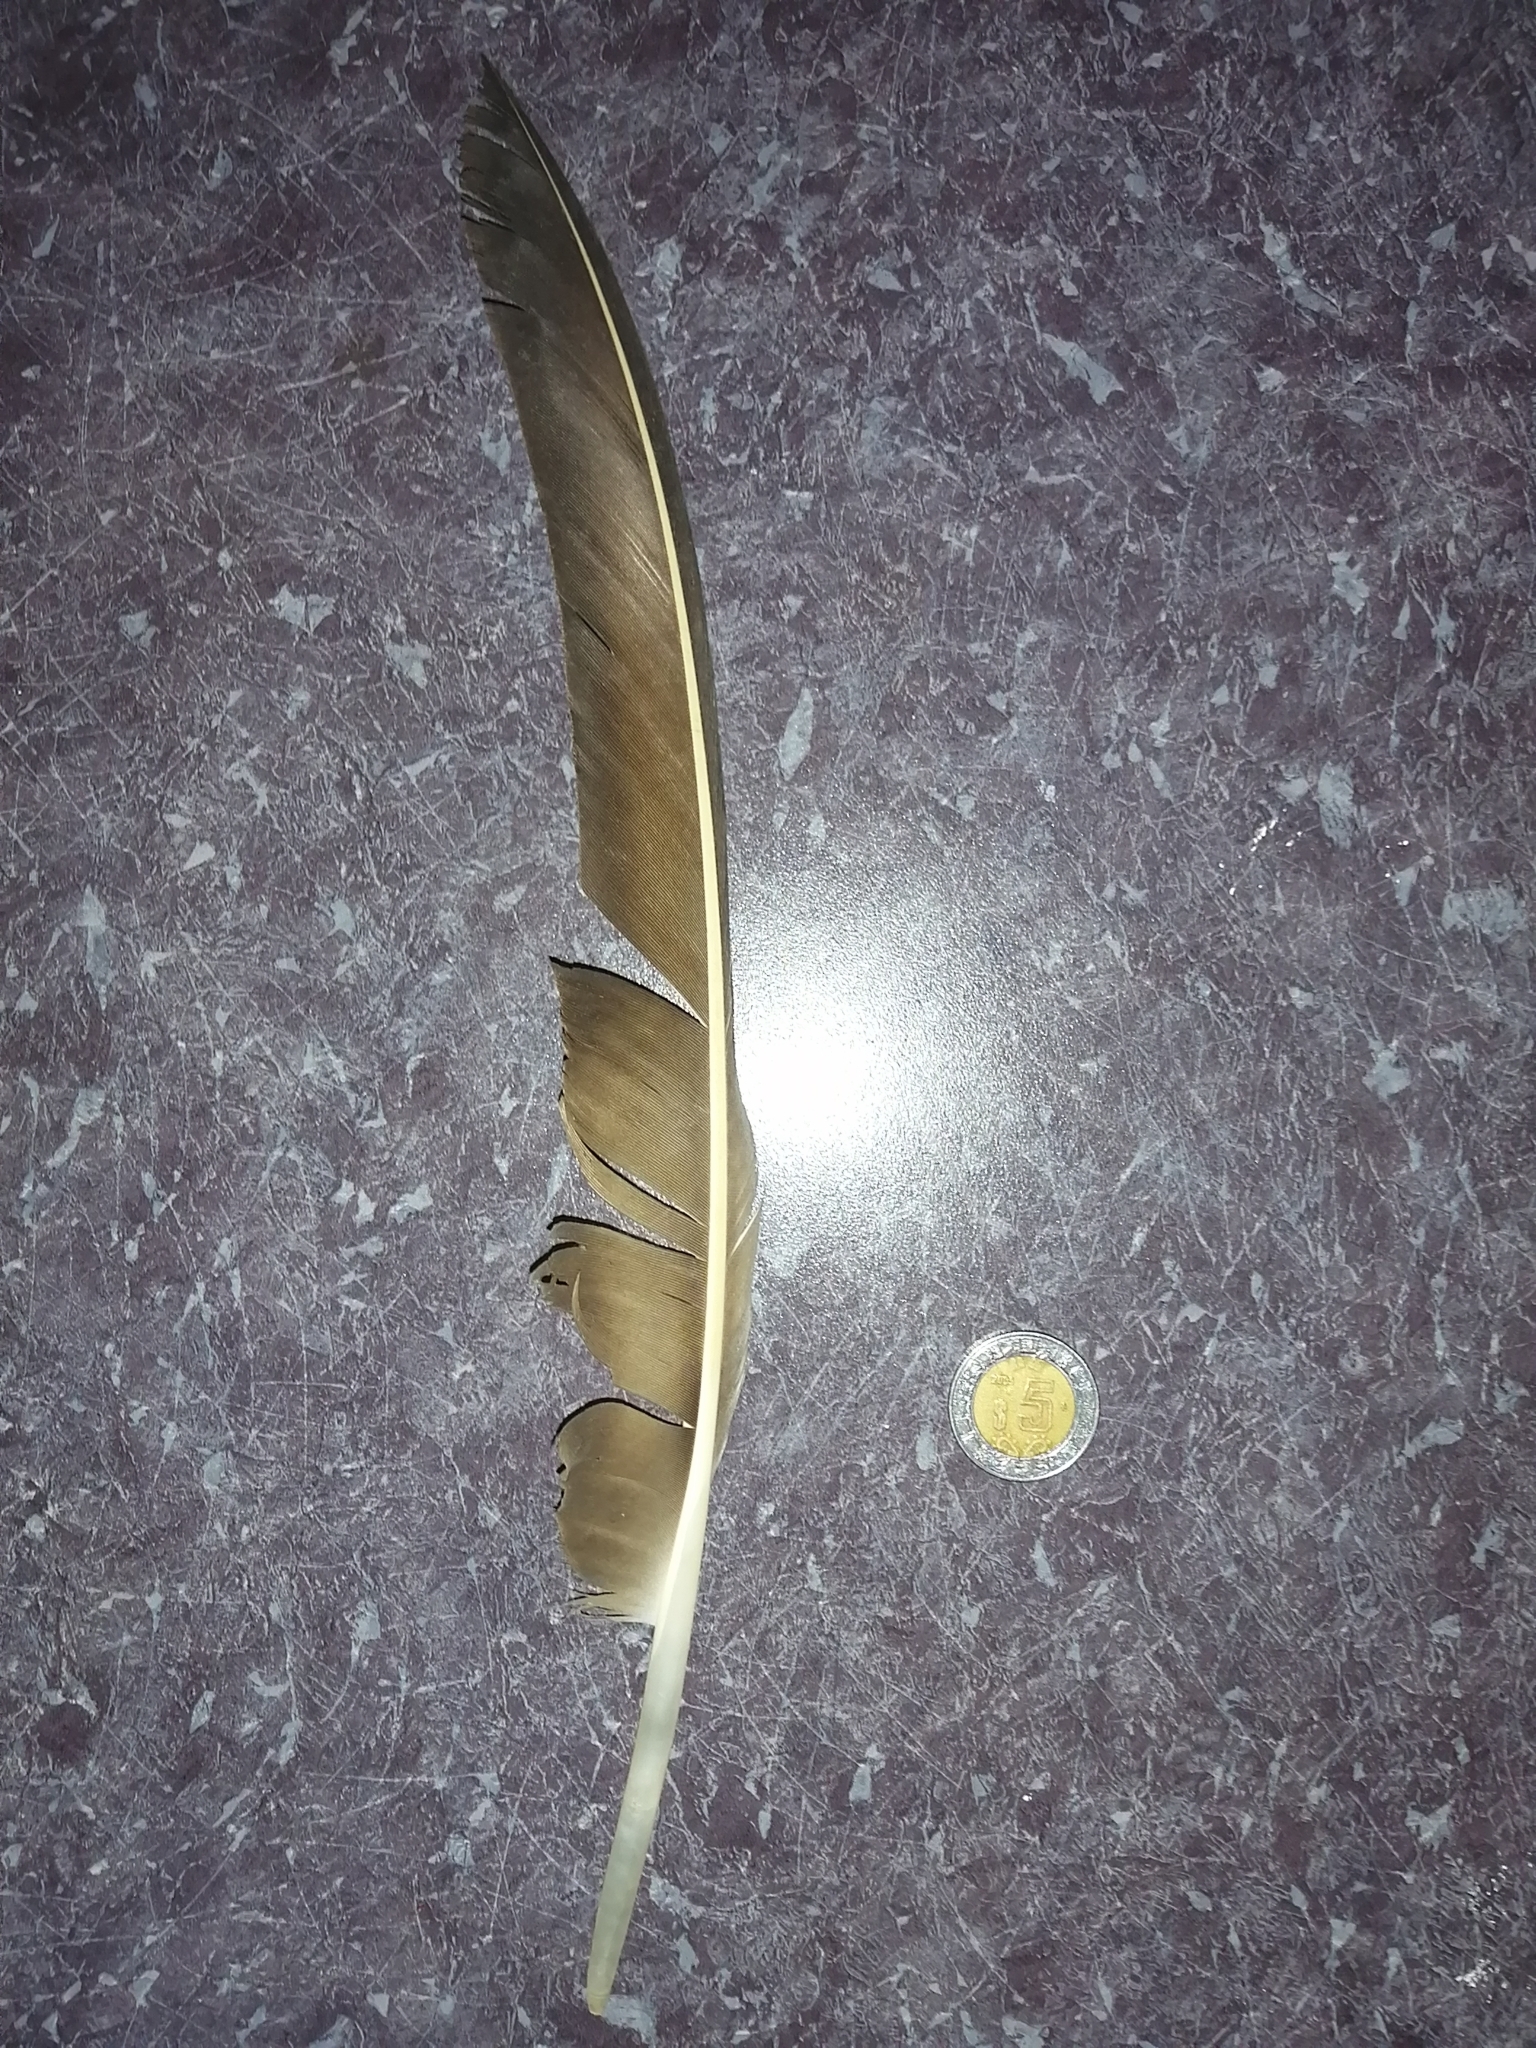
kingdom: Animalia
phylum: Chordata
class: Aves
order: Accipitriformes
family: Cathartidae
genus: Cathartes
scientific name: Cathartes aura
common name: Turkey vulture
